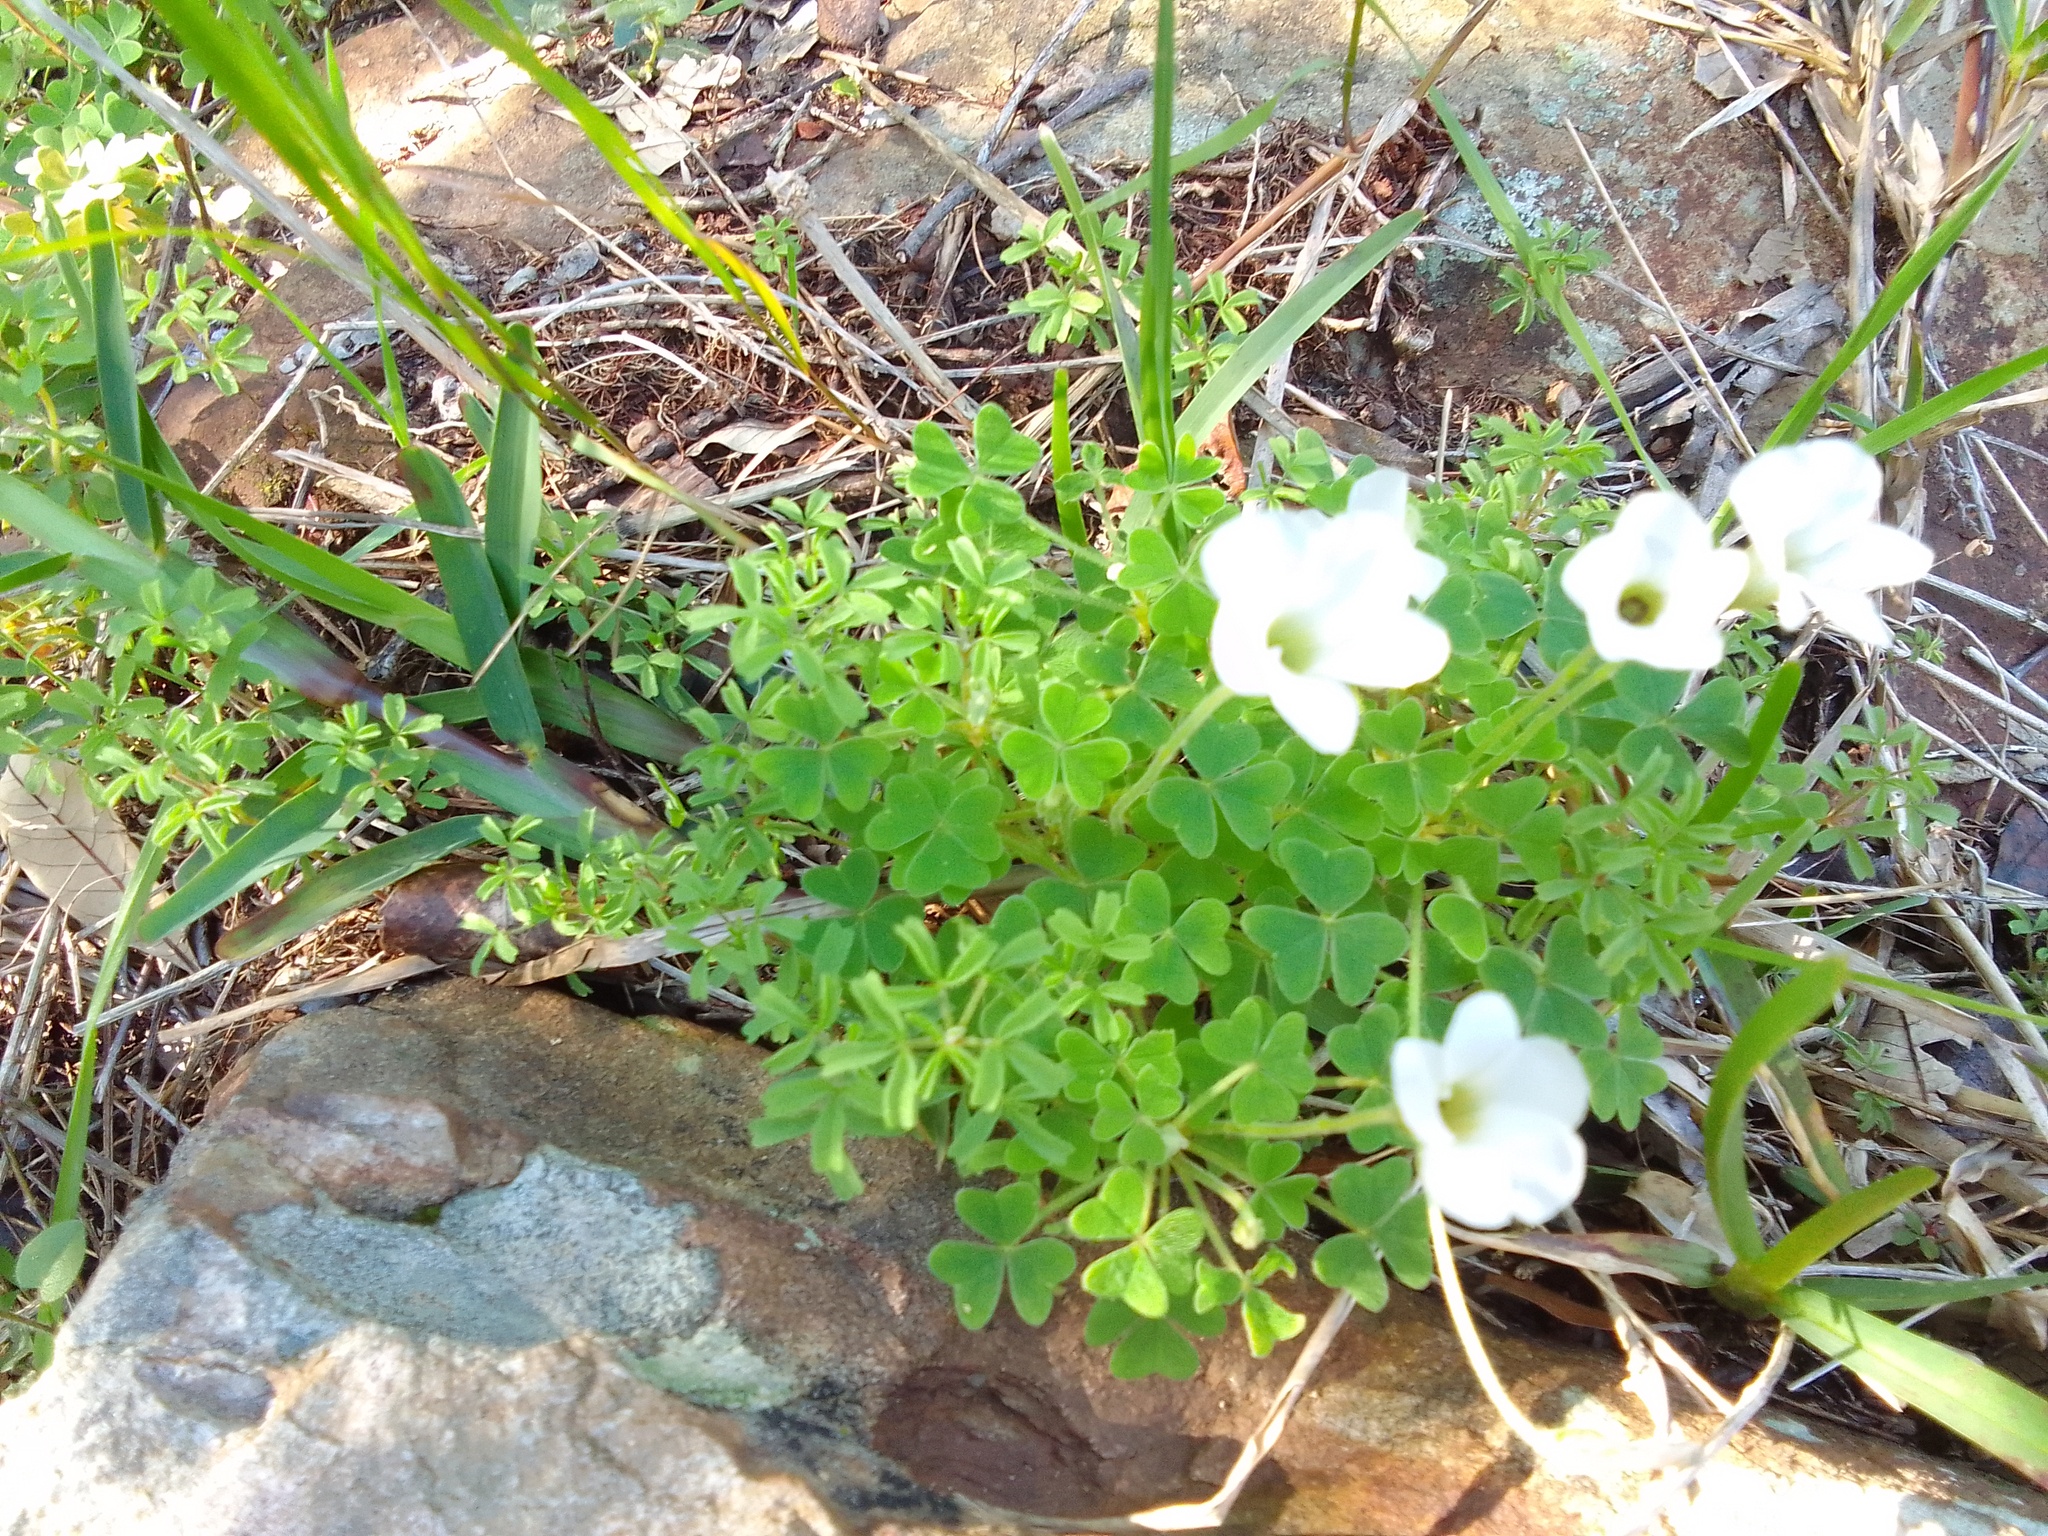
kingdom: Plantae
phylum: Tracheophyta
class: Magnoliopsida
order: Oxalidales
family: Oxalidaceae
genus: Oxalis
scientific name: Oxalis lanata
